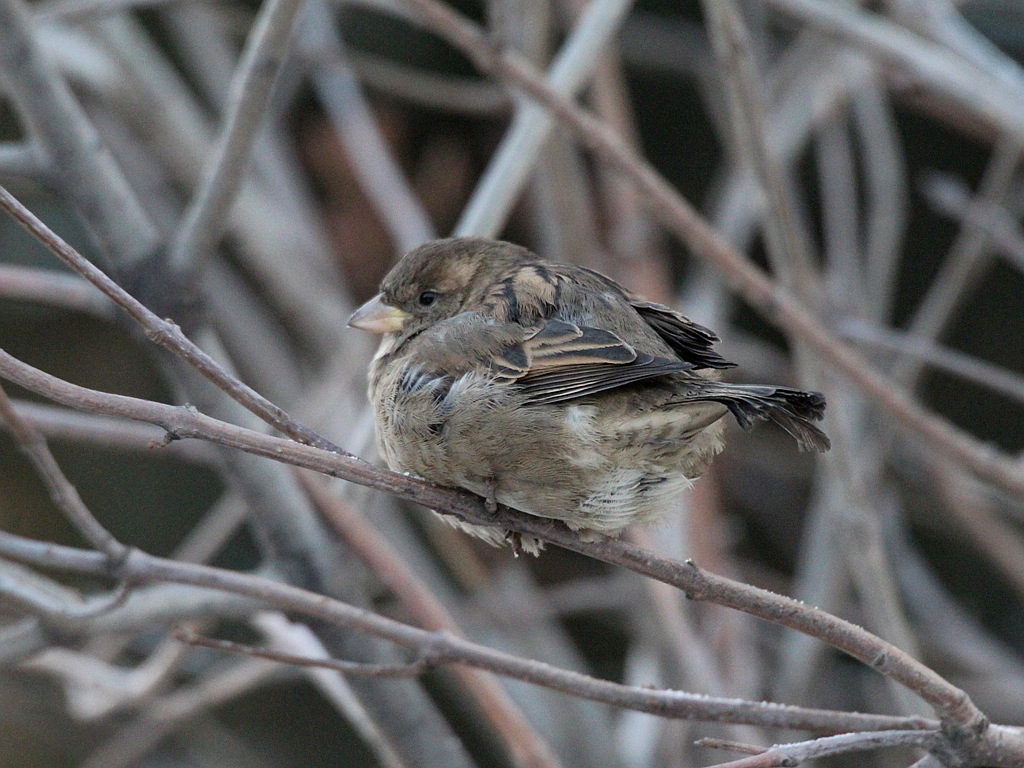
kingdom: Animalia
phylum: Chordata
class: Aves
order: Passeriformes
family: Passeridae
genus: Passer
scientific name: Passer domesticus
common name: House sparrow
